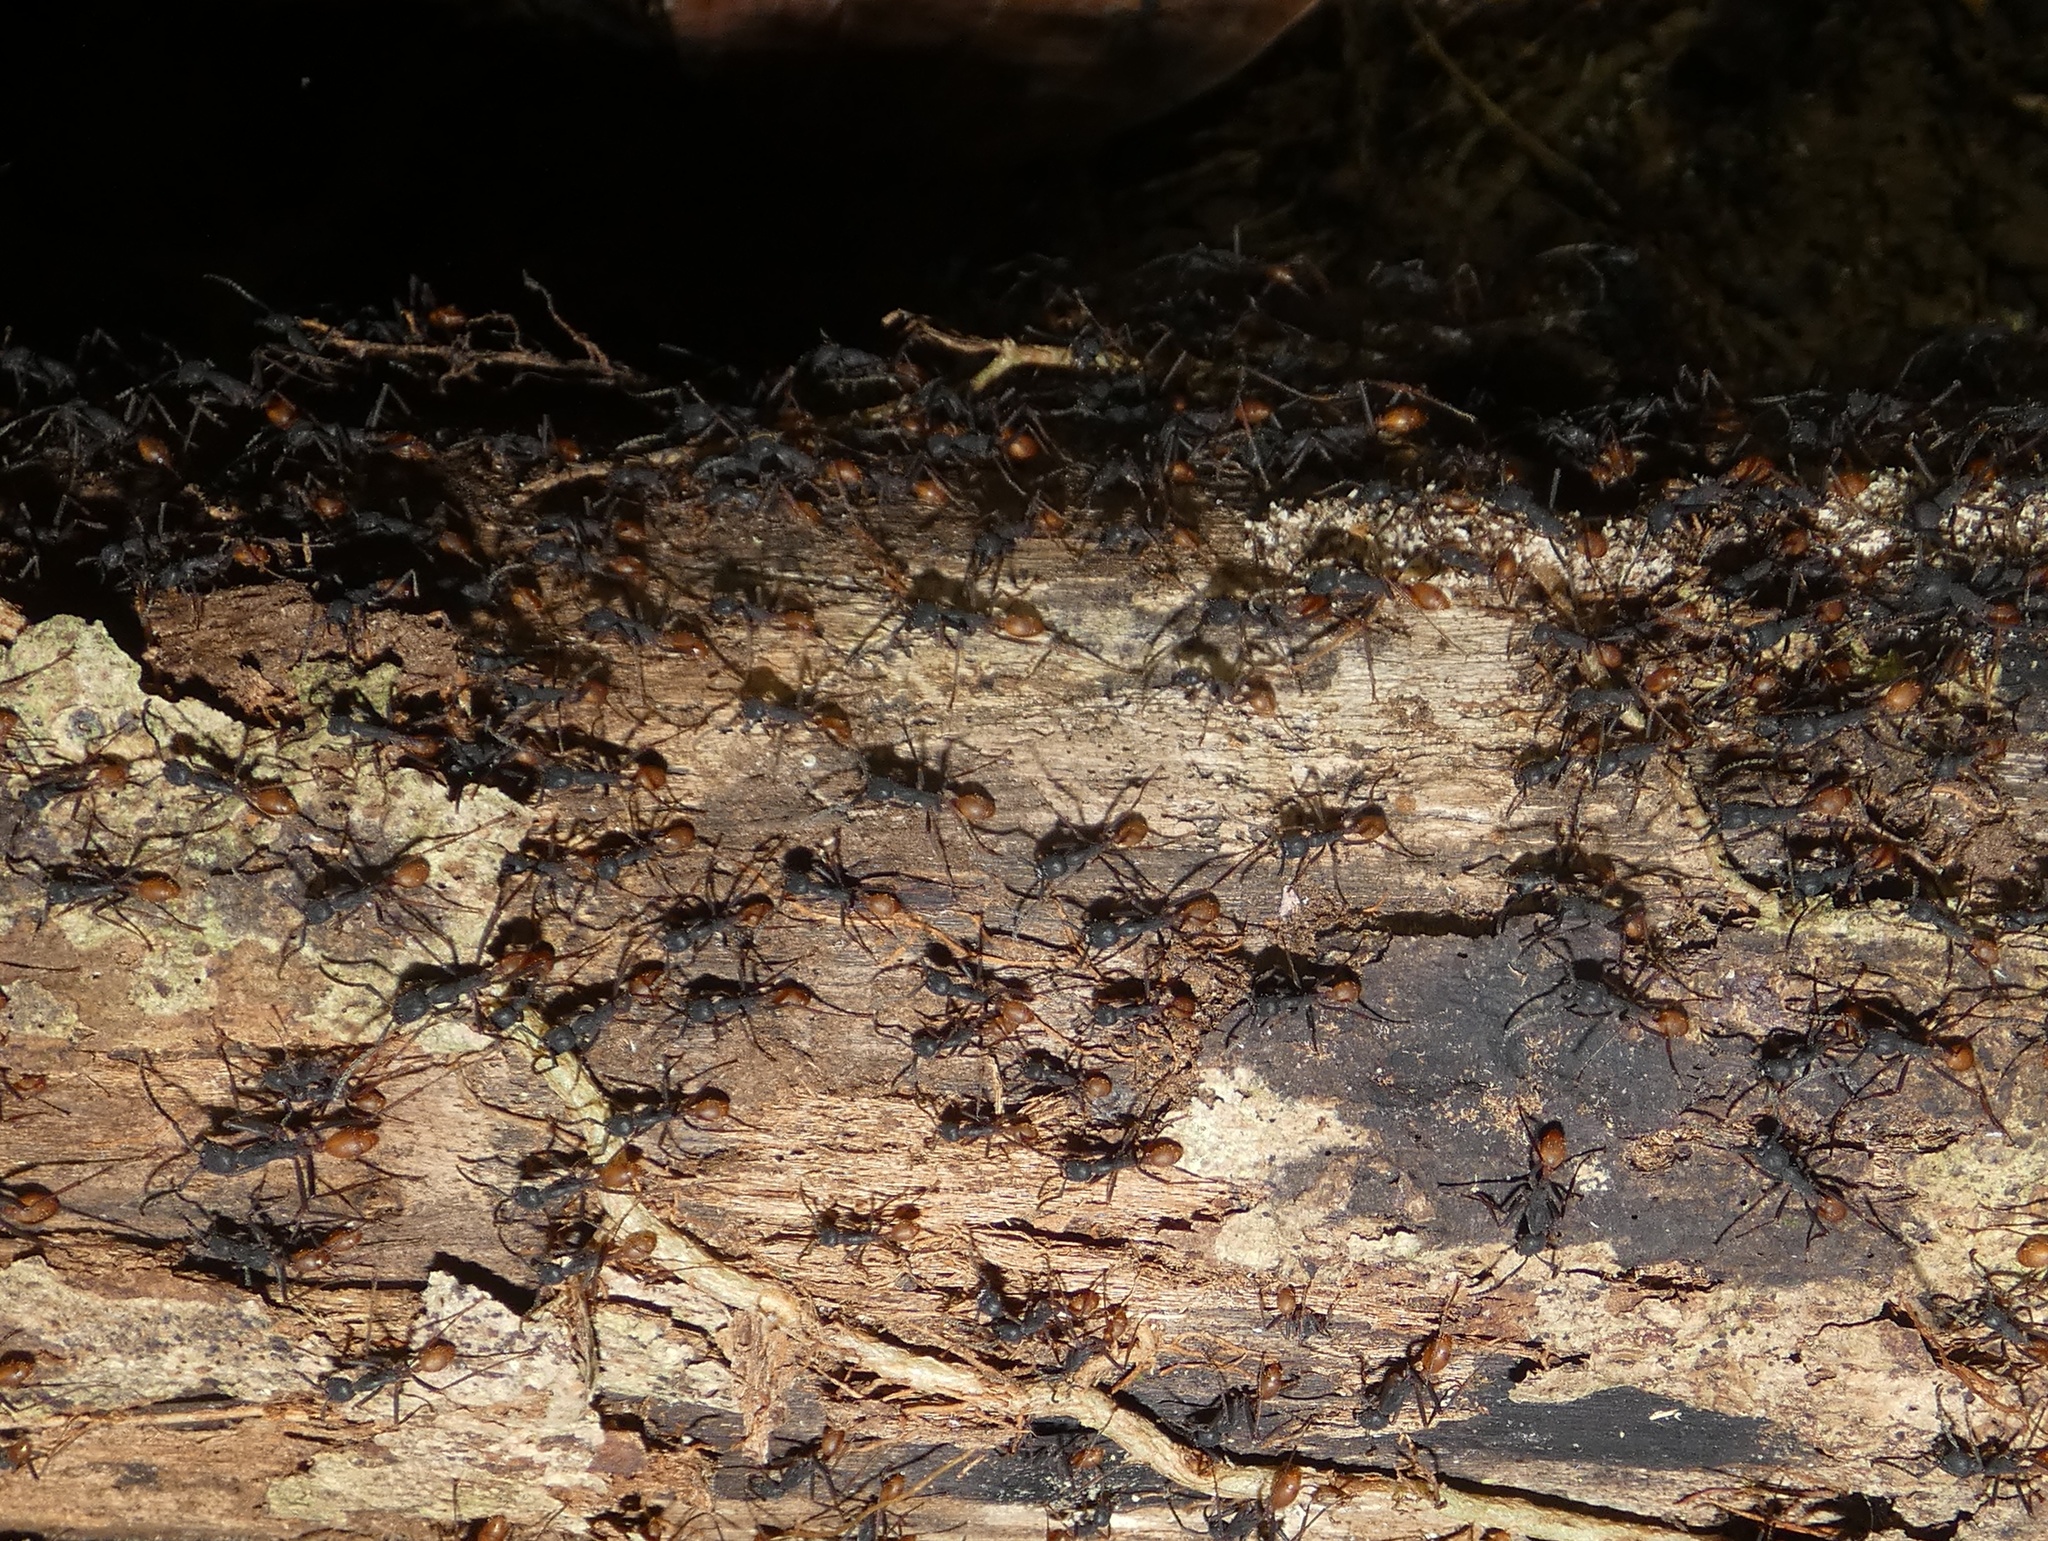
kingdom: Animalia
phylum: Arthropoda
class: Insecta
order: Hymenoptera
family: Formicidae
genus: Eciton
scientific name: Eciton burchellii
